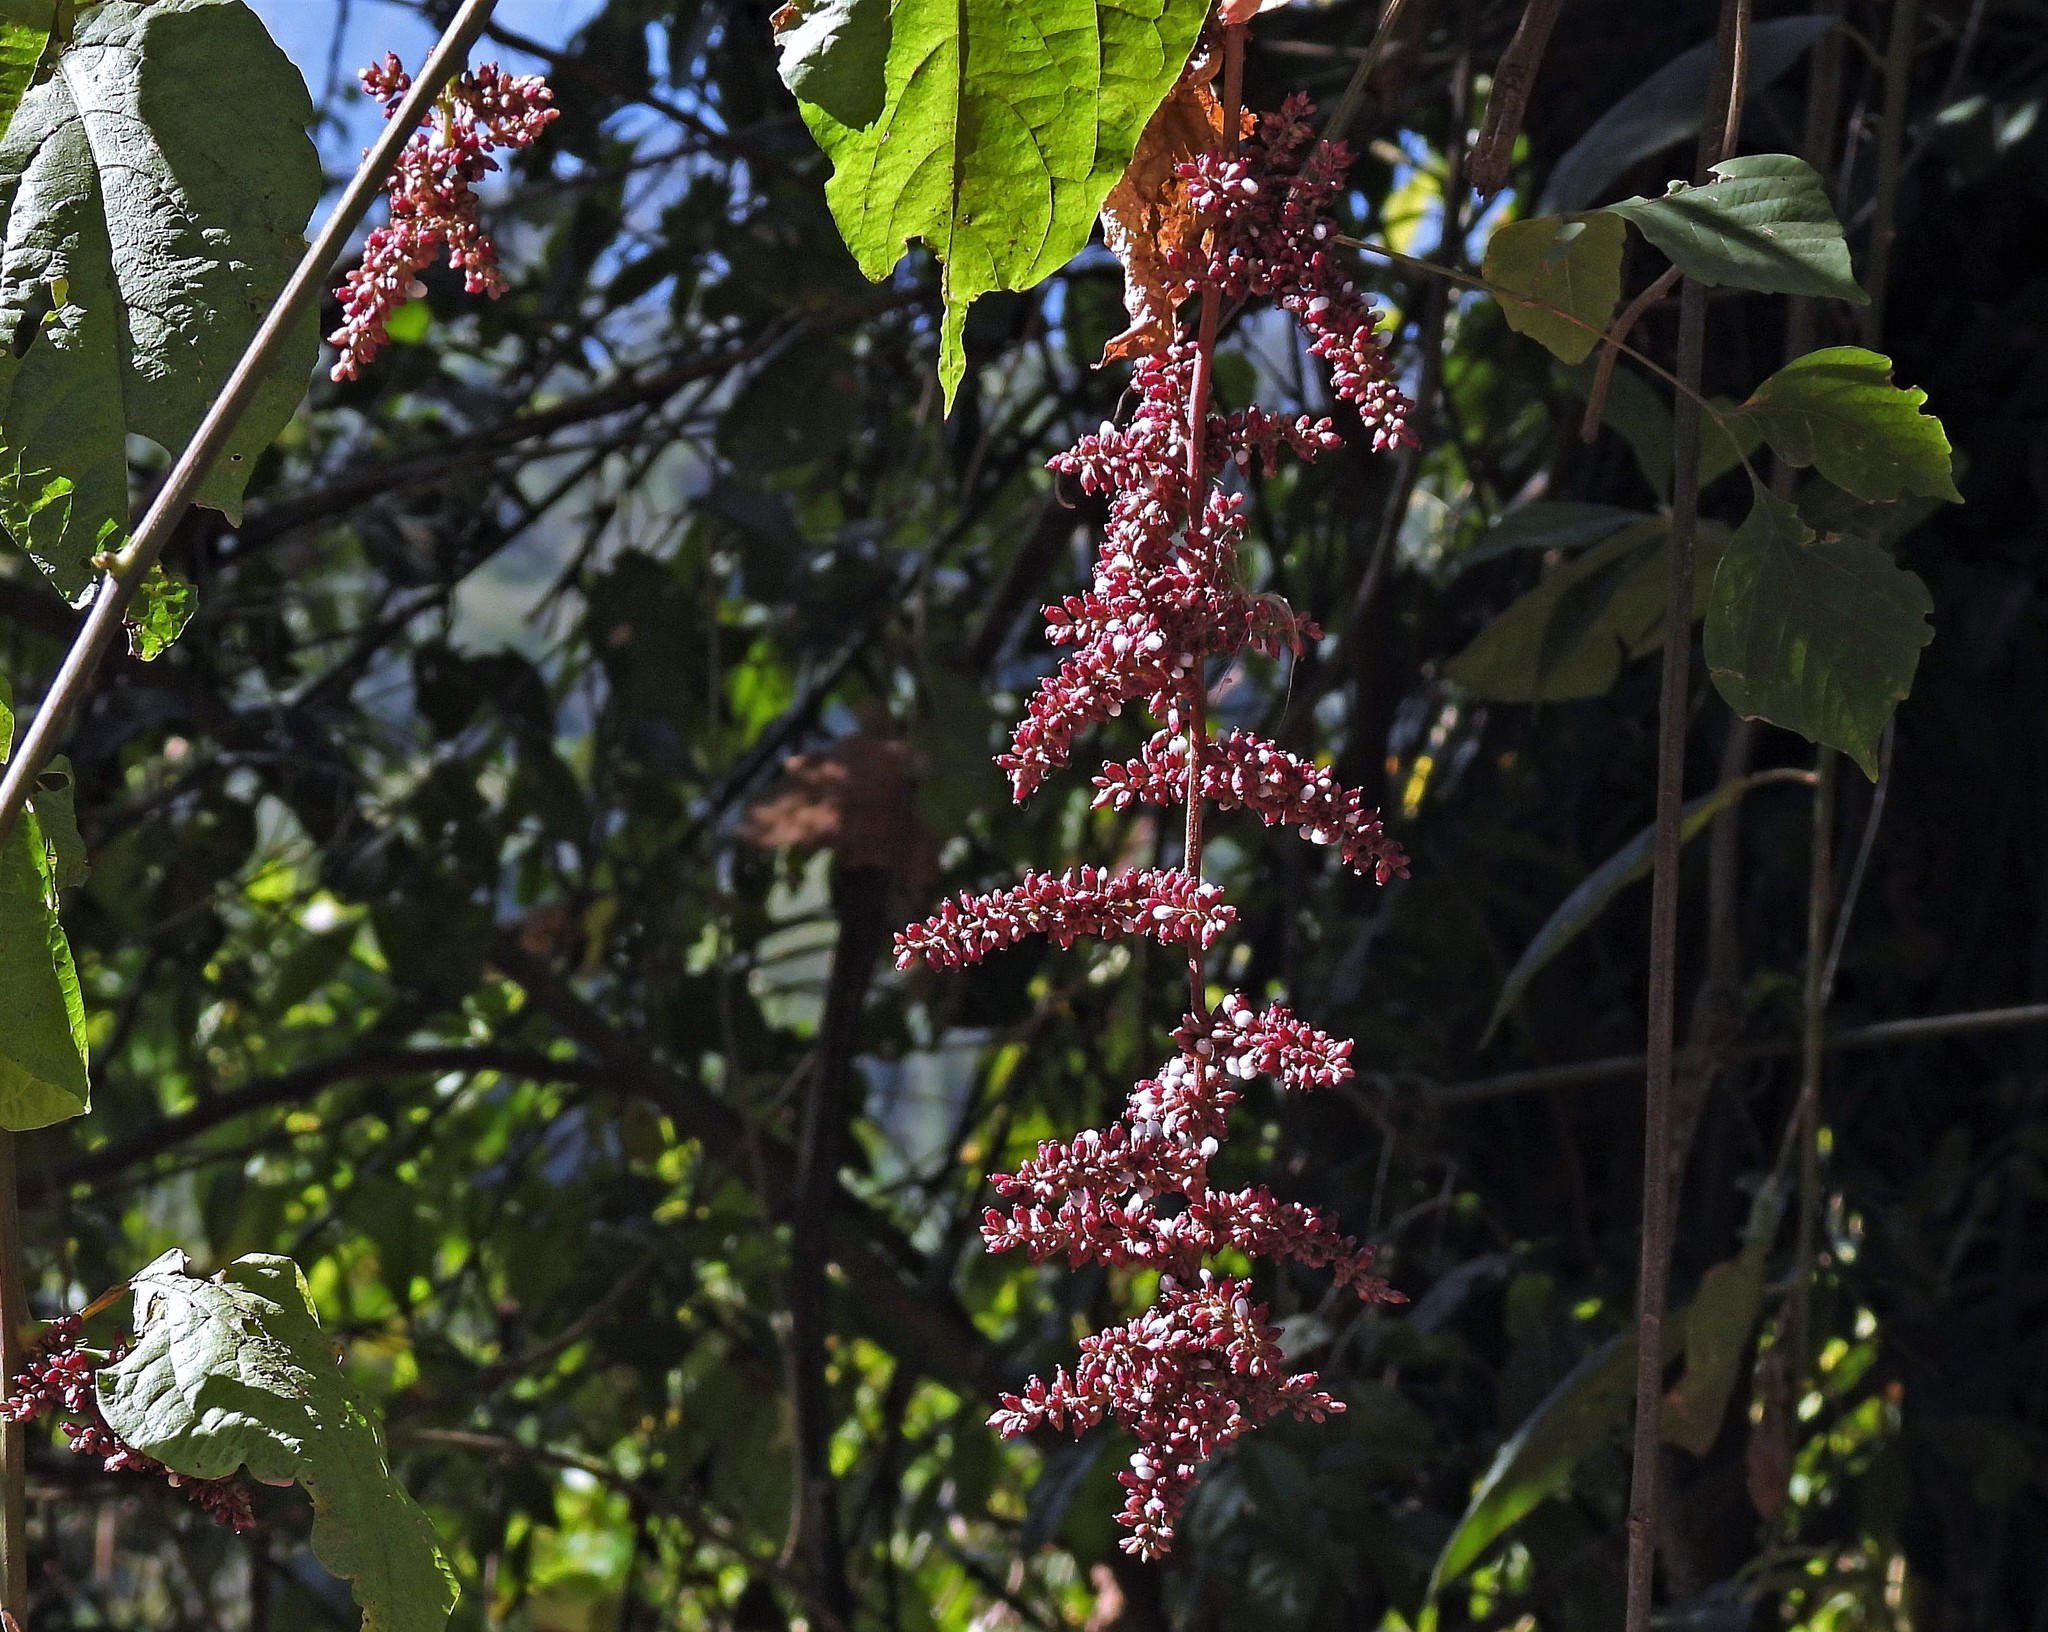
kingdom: Plantae
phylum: Tracheophyta
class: Magnoliopsida
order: Caryophyllales
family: Amaranthaceae
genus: Chamissoa
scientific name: Chamissoa altissima
